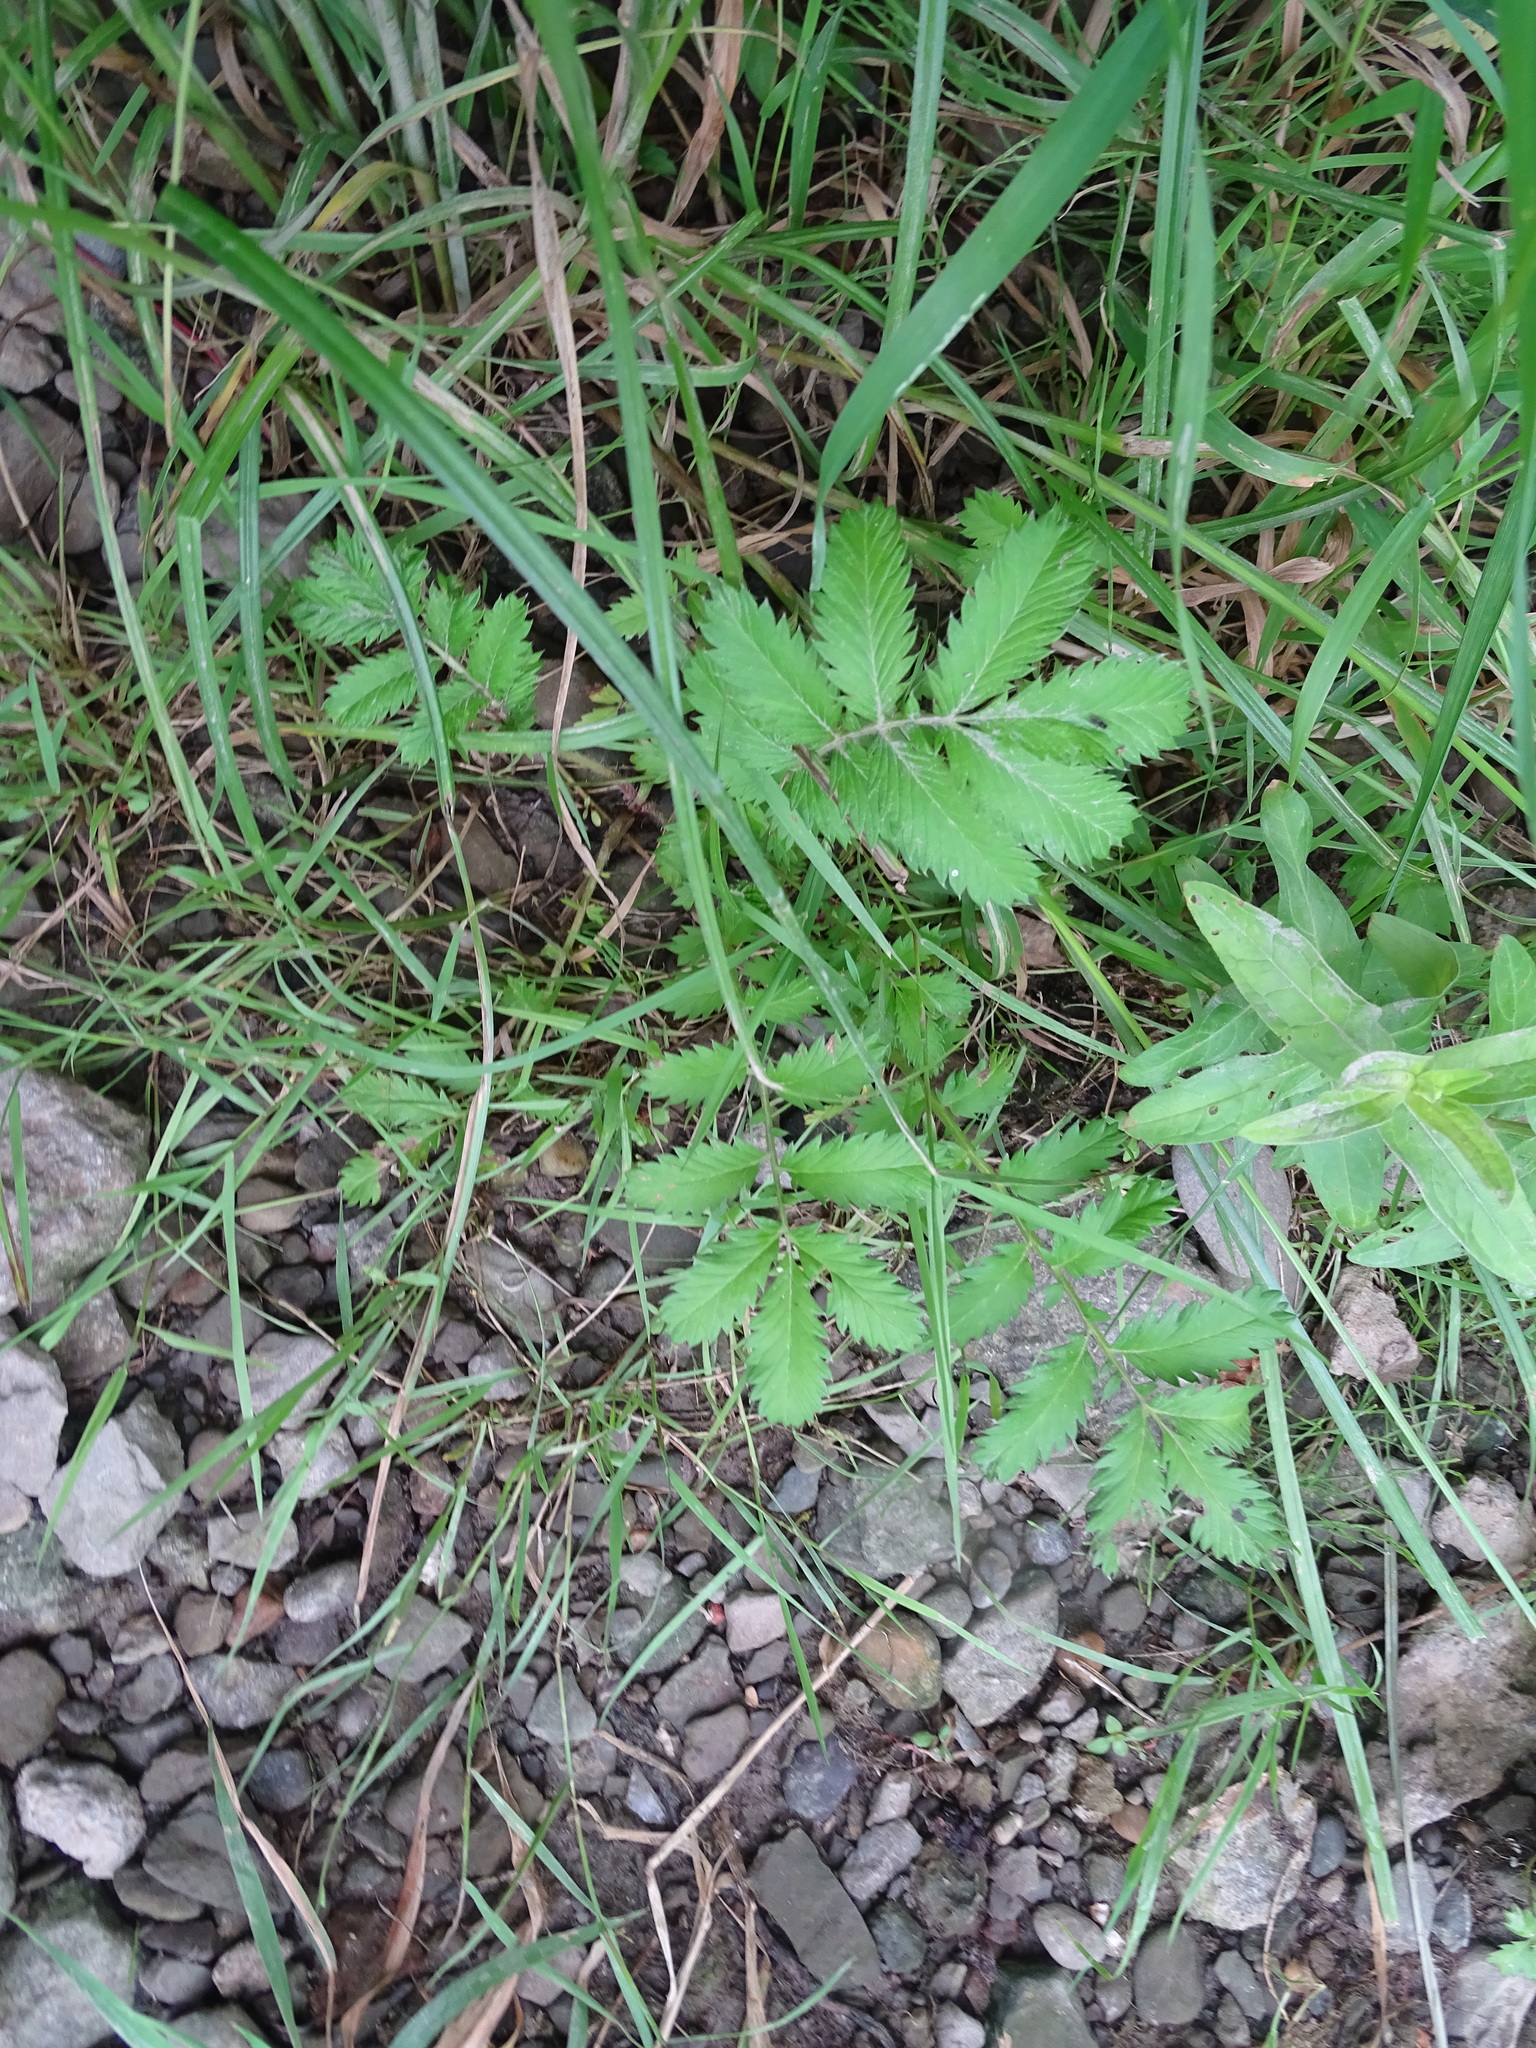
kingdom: Plantae
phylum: Tracheophyta
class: Magnoliopsida
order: Rosales
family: Rosaceae
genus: Argentina
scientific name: Argentina anserina
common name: Common silverweed
